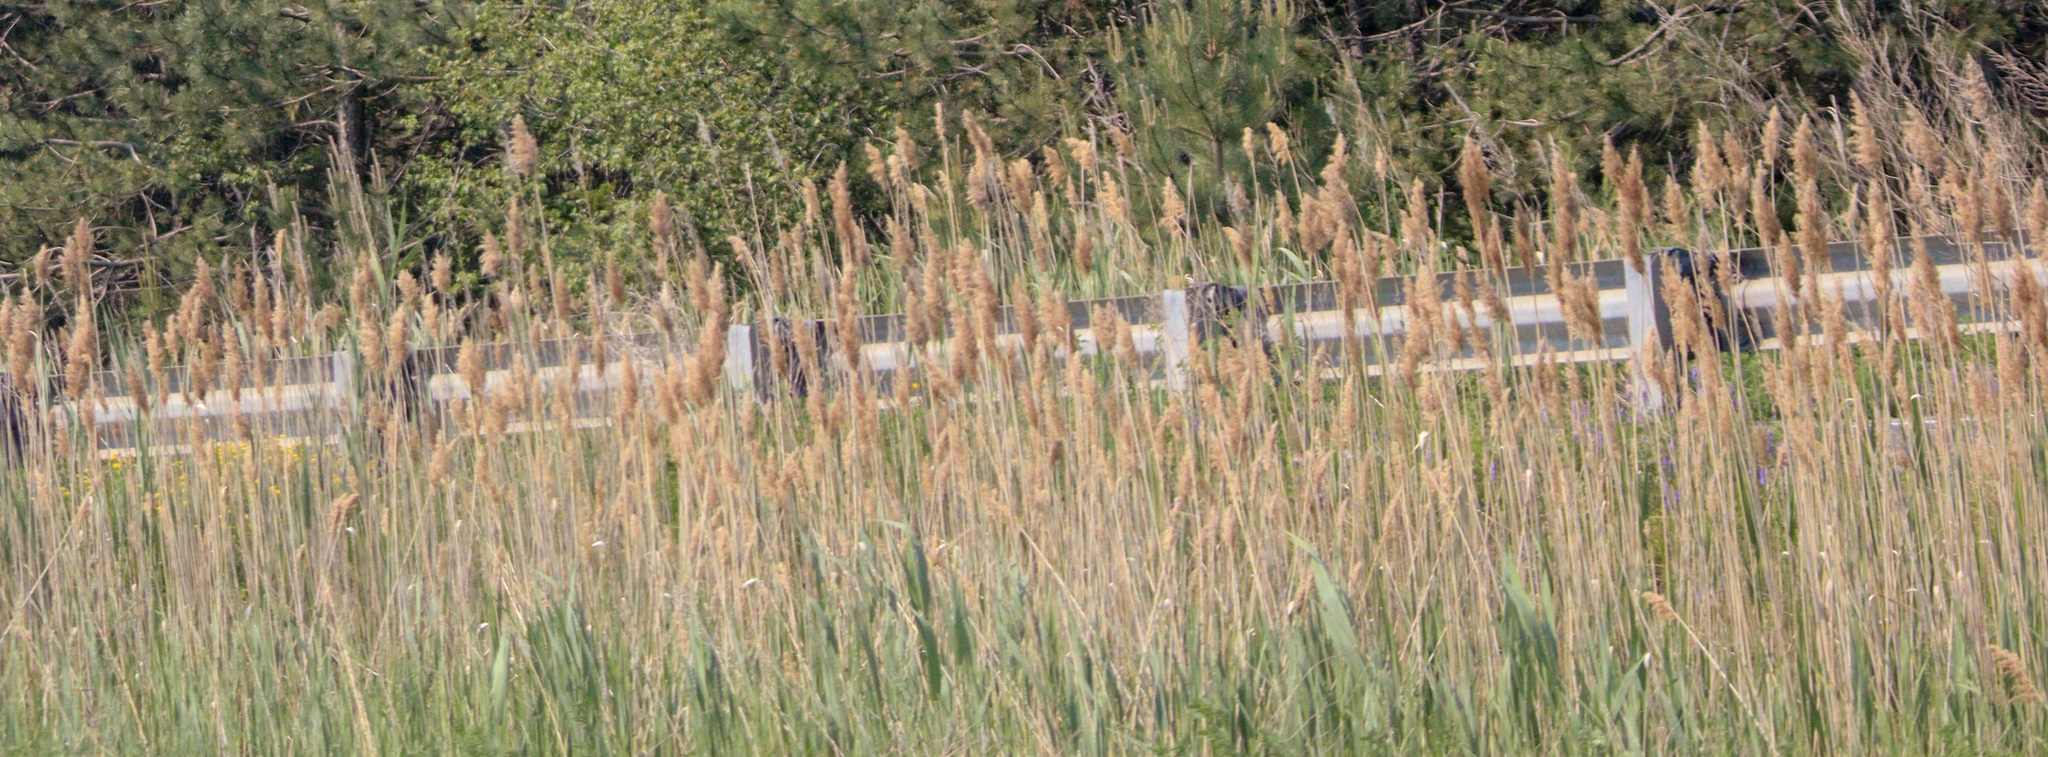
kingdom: Plantae
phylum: Tracheophyta
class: Liliopsida
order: Poales
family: Poaceae
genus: Phragmites
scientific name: Phragmites australis
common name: Common reed
